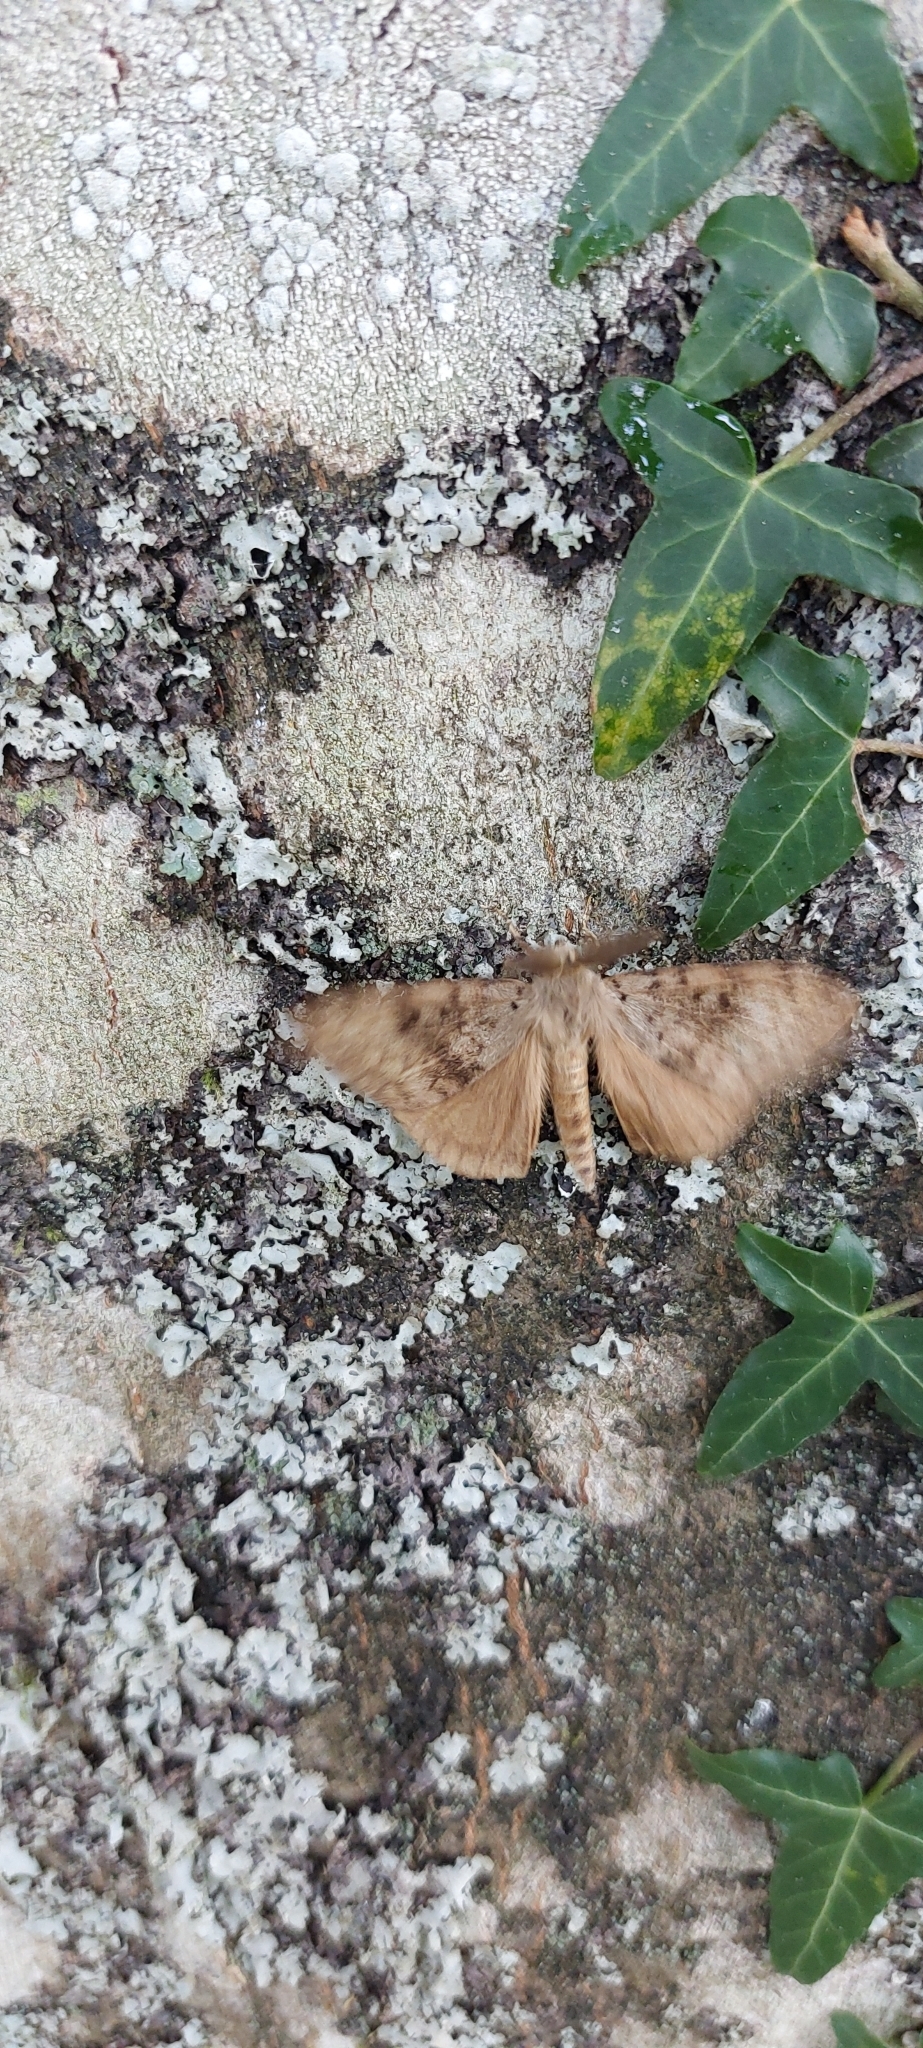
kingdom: Animalia
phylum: Arthropoda
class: Insecta
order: Lepidoptera
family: Erebidae
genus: Lymantria
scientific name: Lymantria dispar
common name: Gypsy moth
